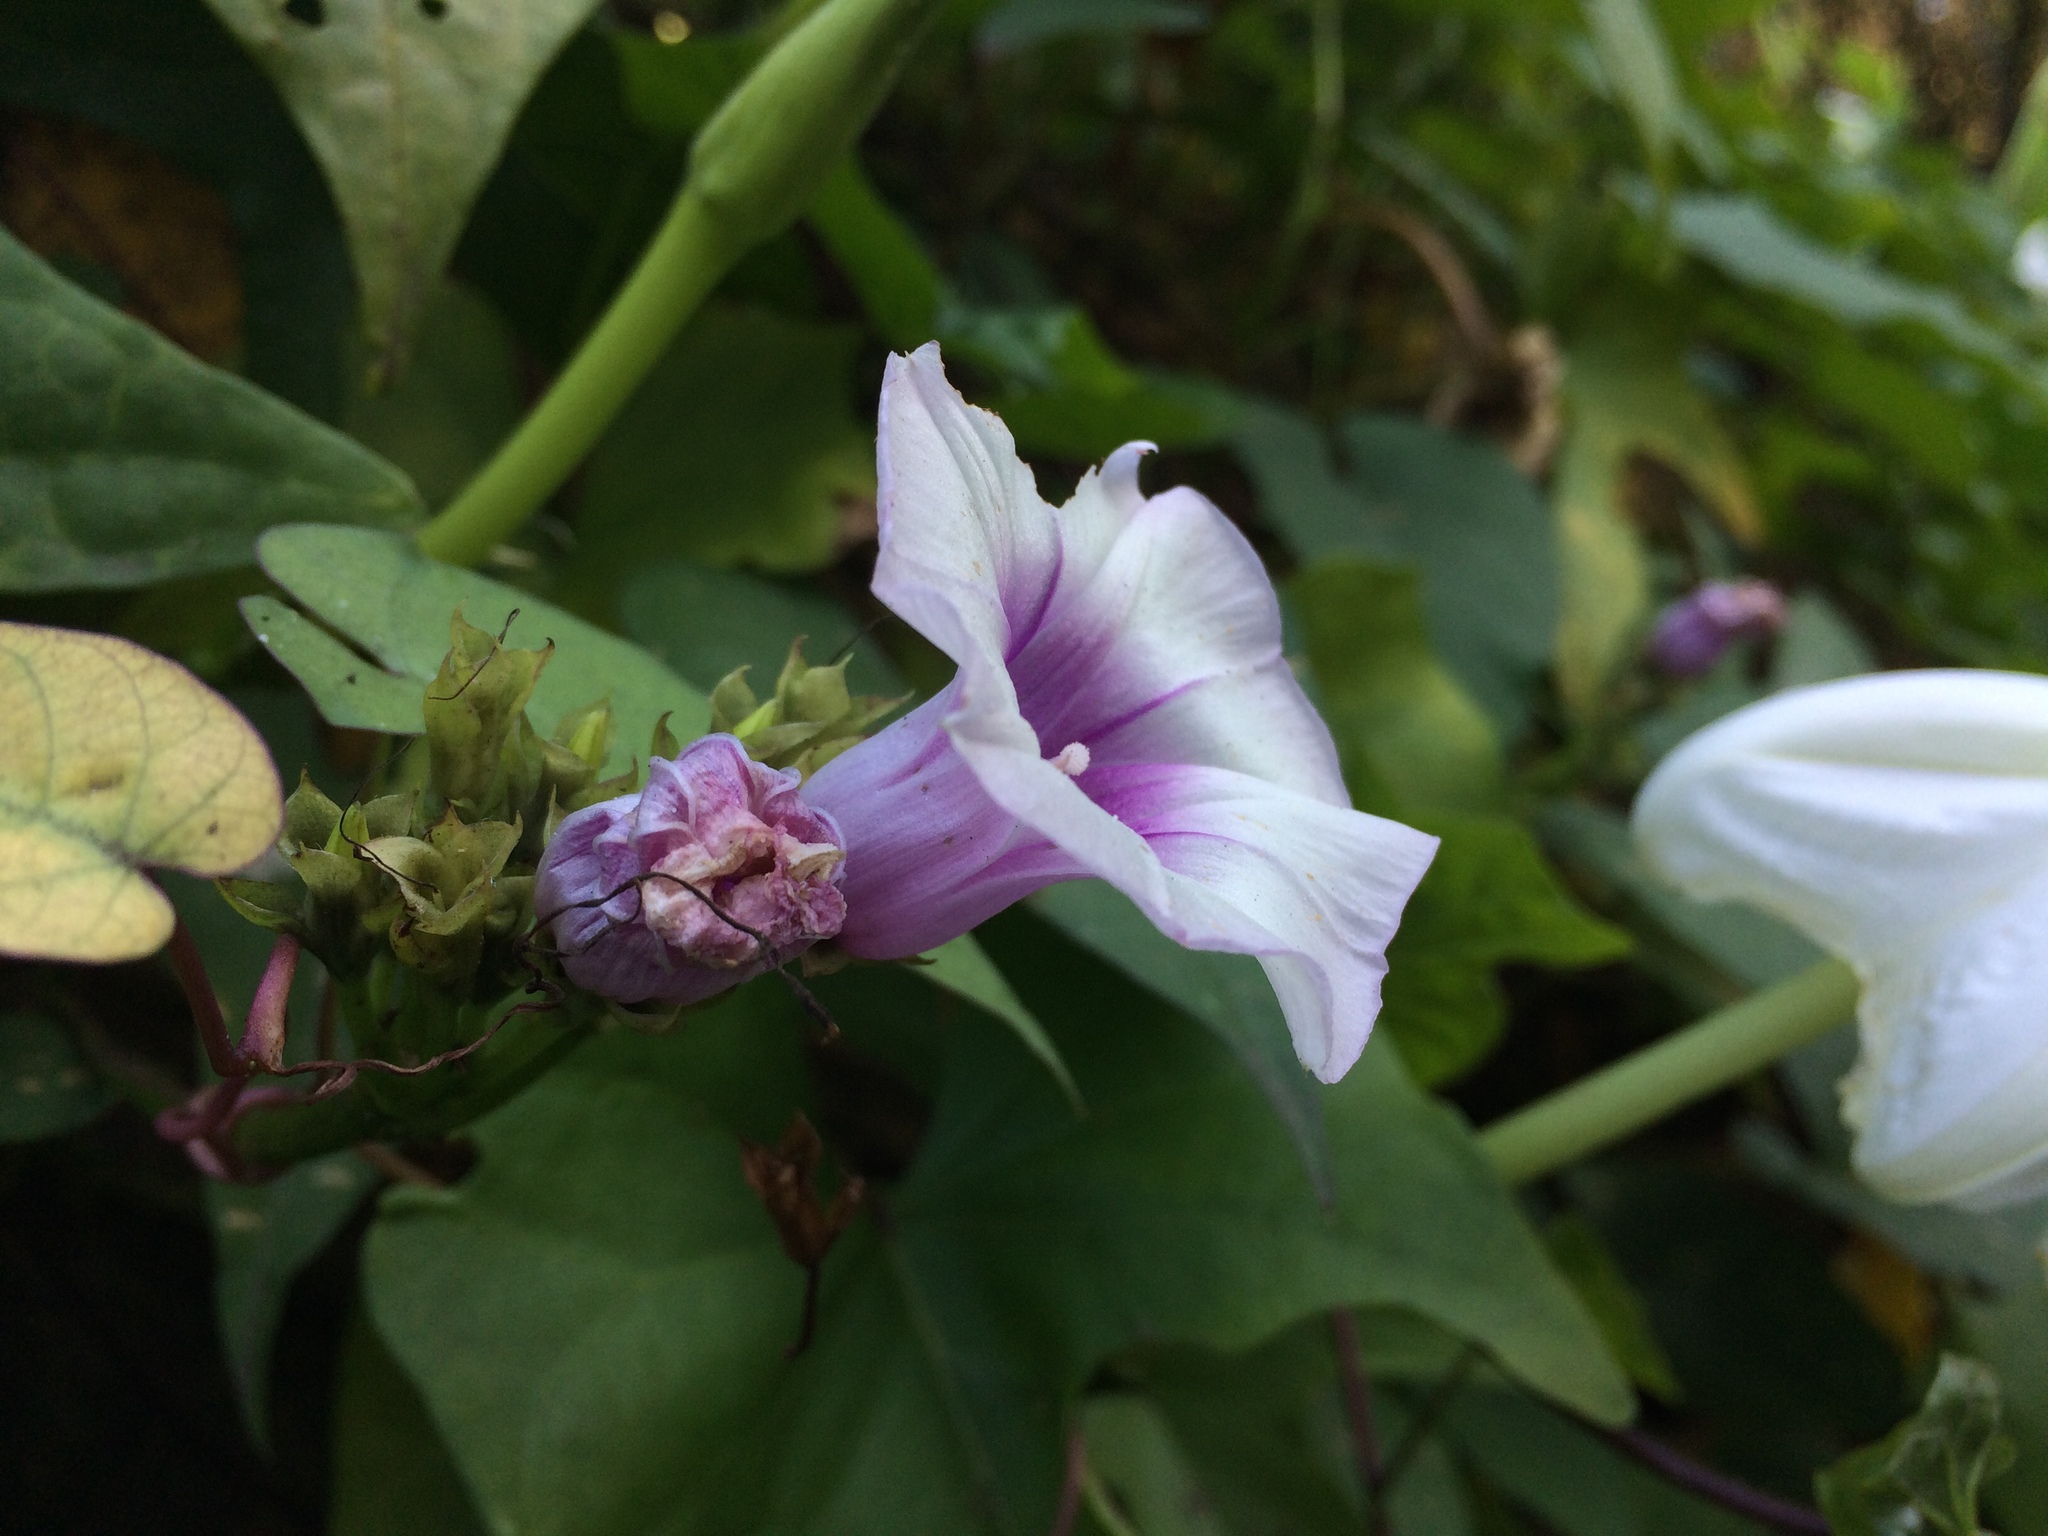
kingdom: Plantae
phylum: Tracheophyta
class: Magnoliopsida
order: Solanales
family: Convolvulaceae
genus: Ipomoea
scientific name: Ipomoea batatas
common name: Sweet-potato
